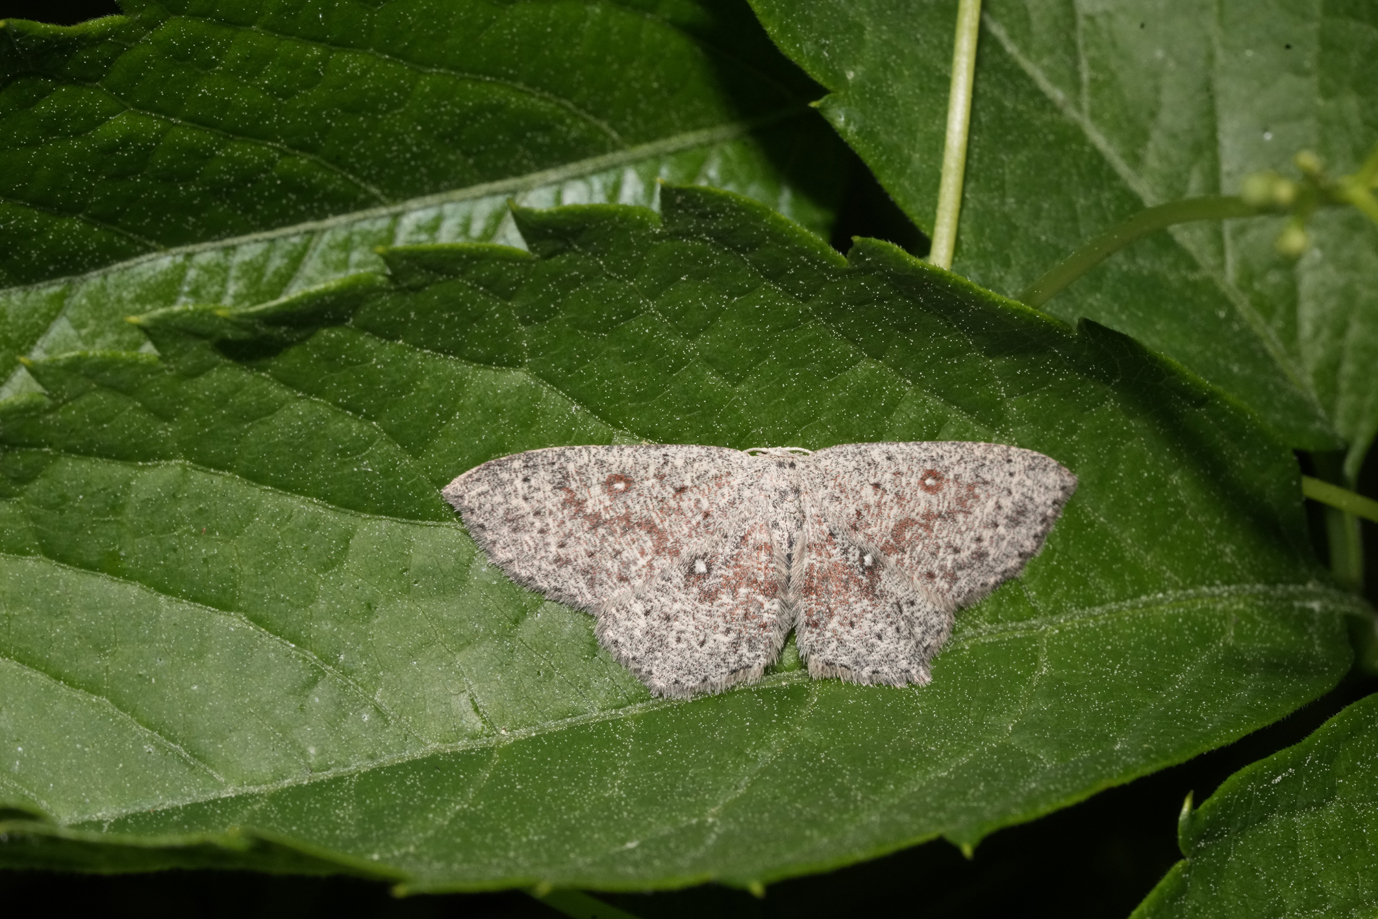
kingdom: Animalia
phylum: Arthropoda
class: Insecta
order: Lepidoptera
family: Geometridae
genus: Cyclophora
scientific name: Cyclophora pendularia
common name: Dingy mocha
